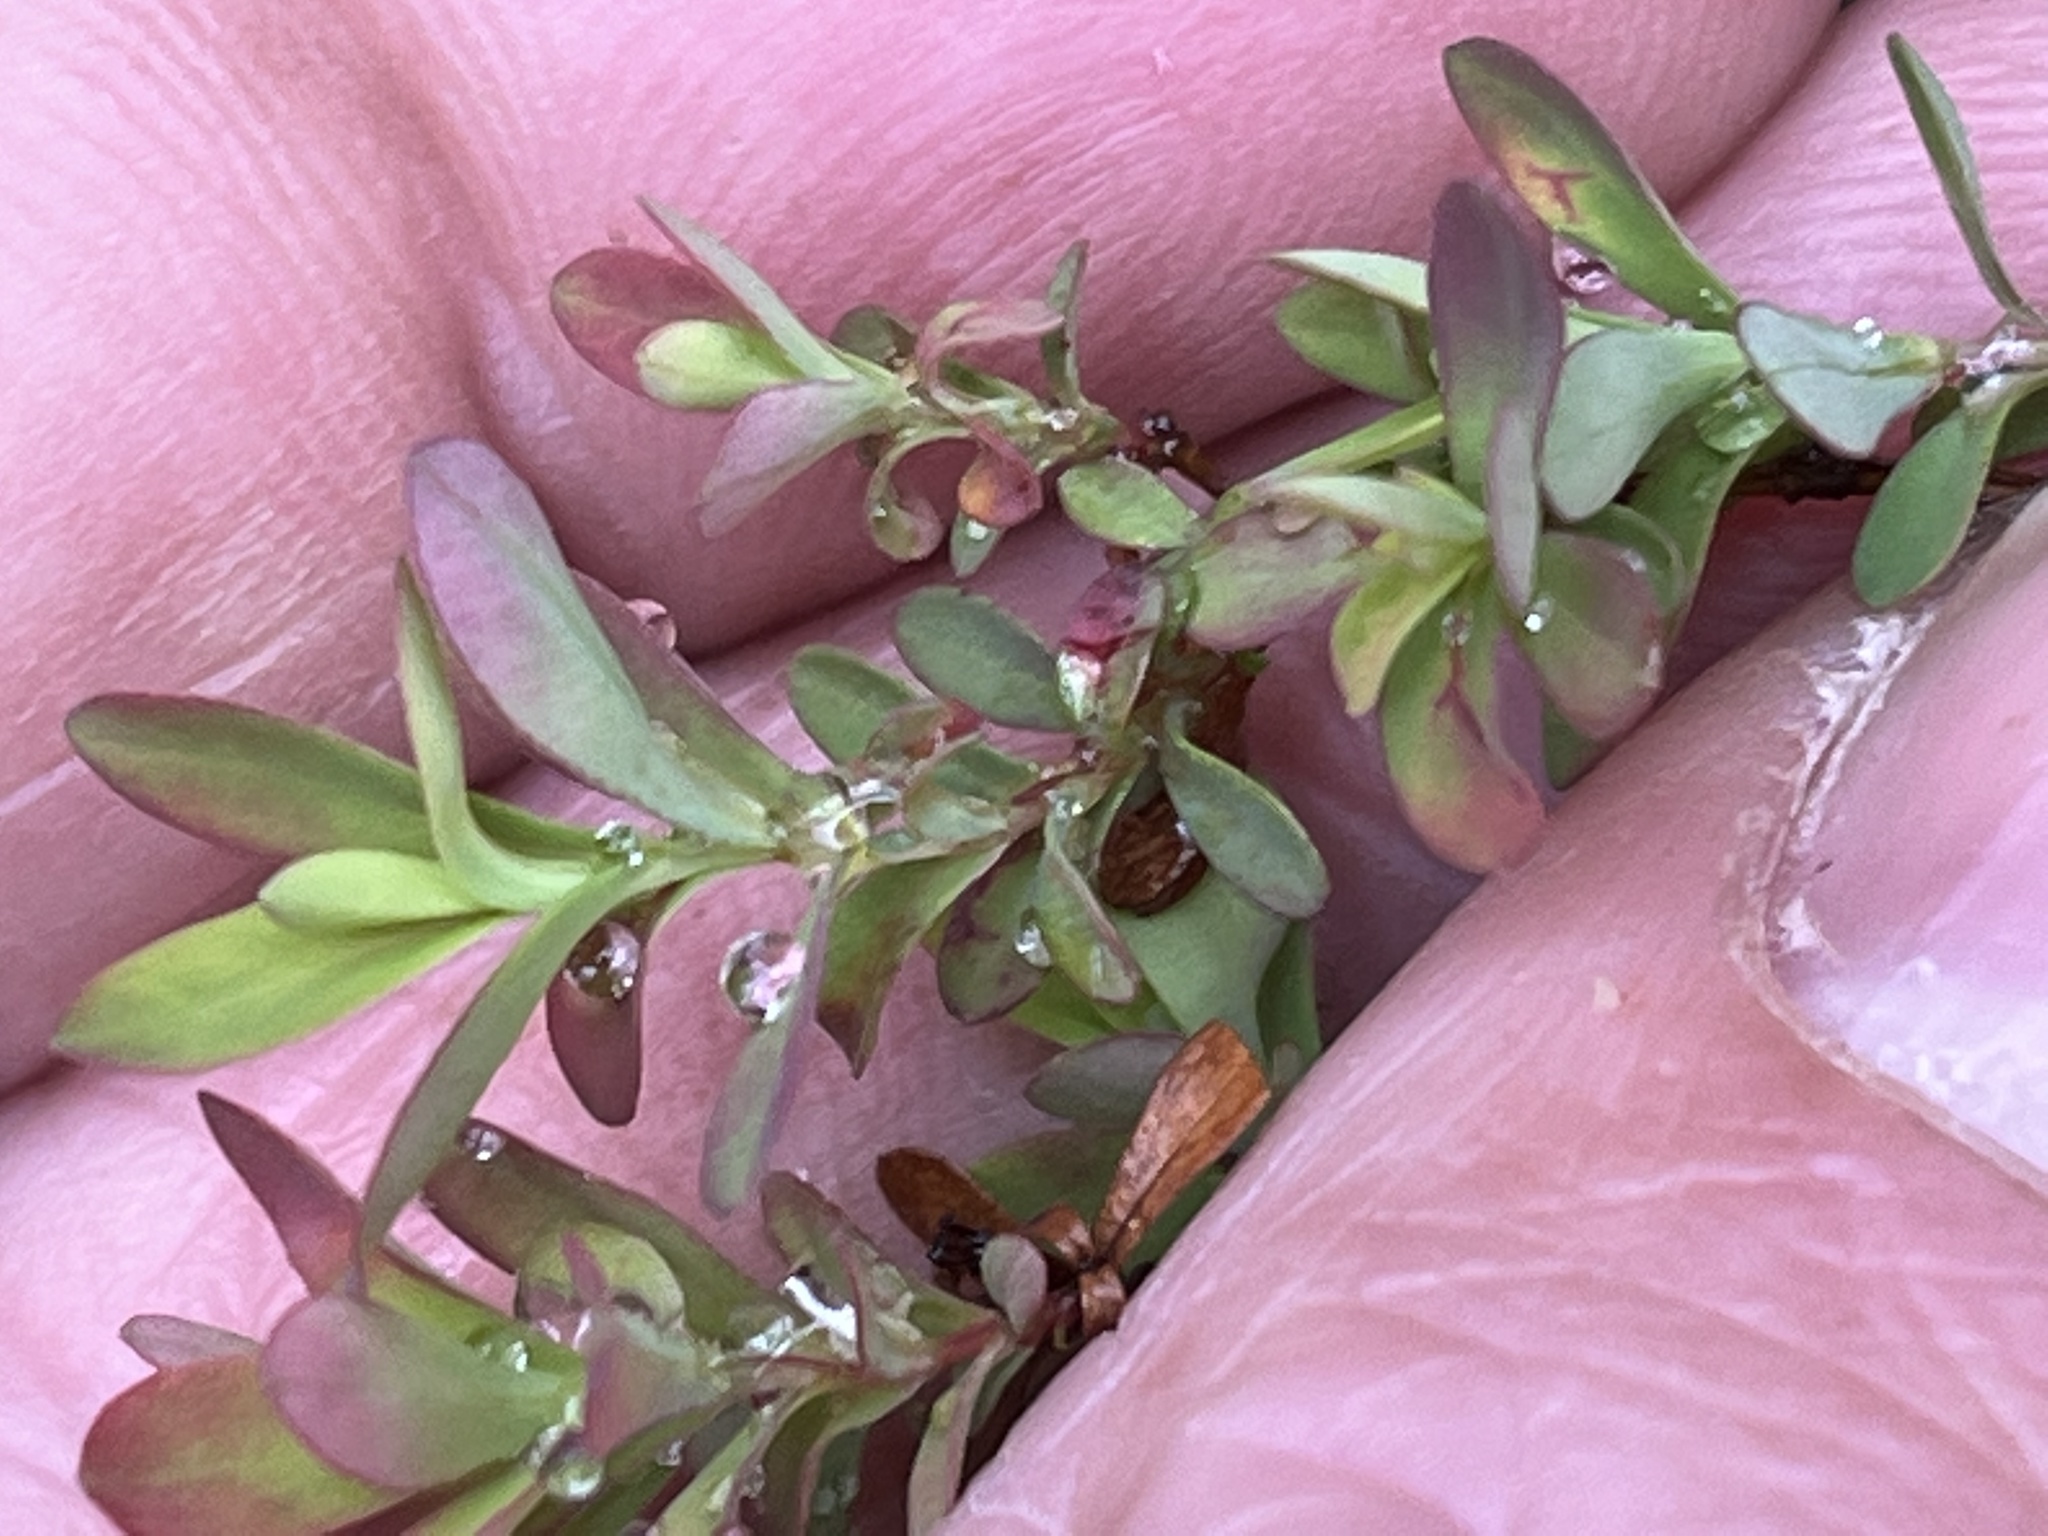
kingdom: Plantae
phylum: Tracheophyta
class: Magnoliopsida
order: Malpighiales
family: Hypericaceae
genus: Hypericum
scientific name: Hypericum hypericoides
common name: St. andrew's cross
